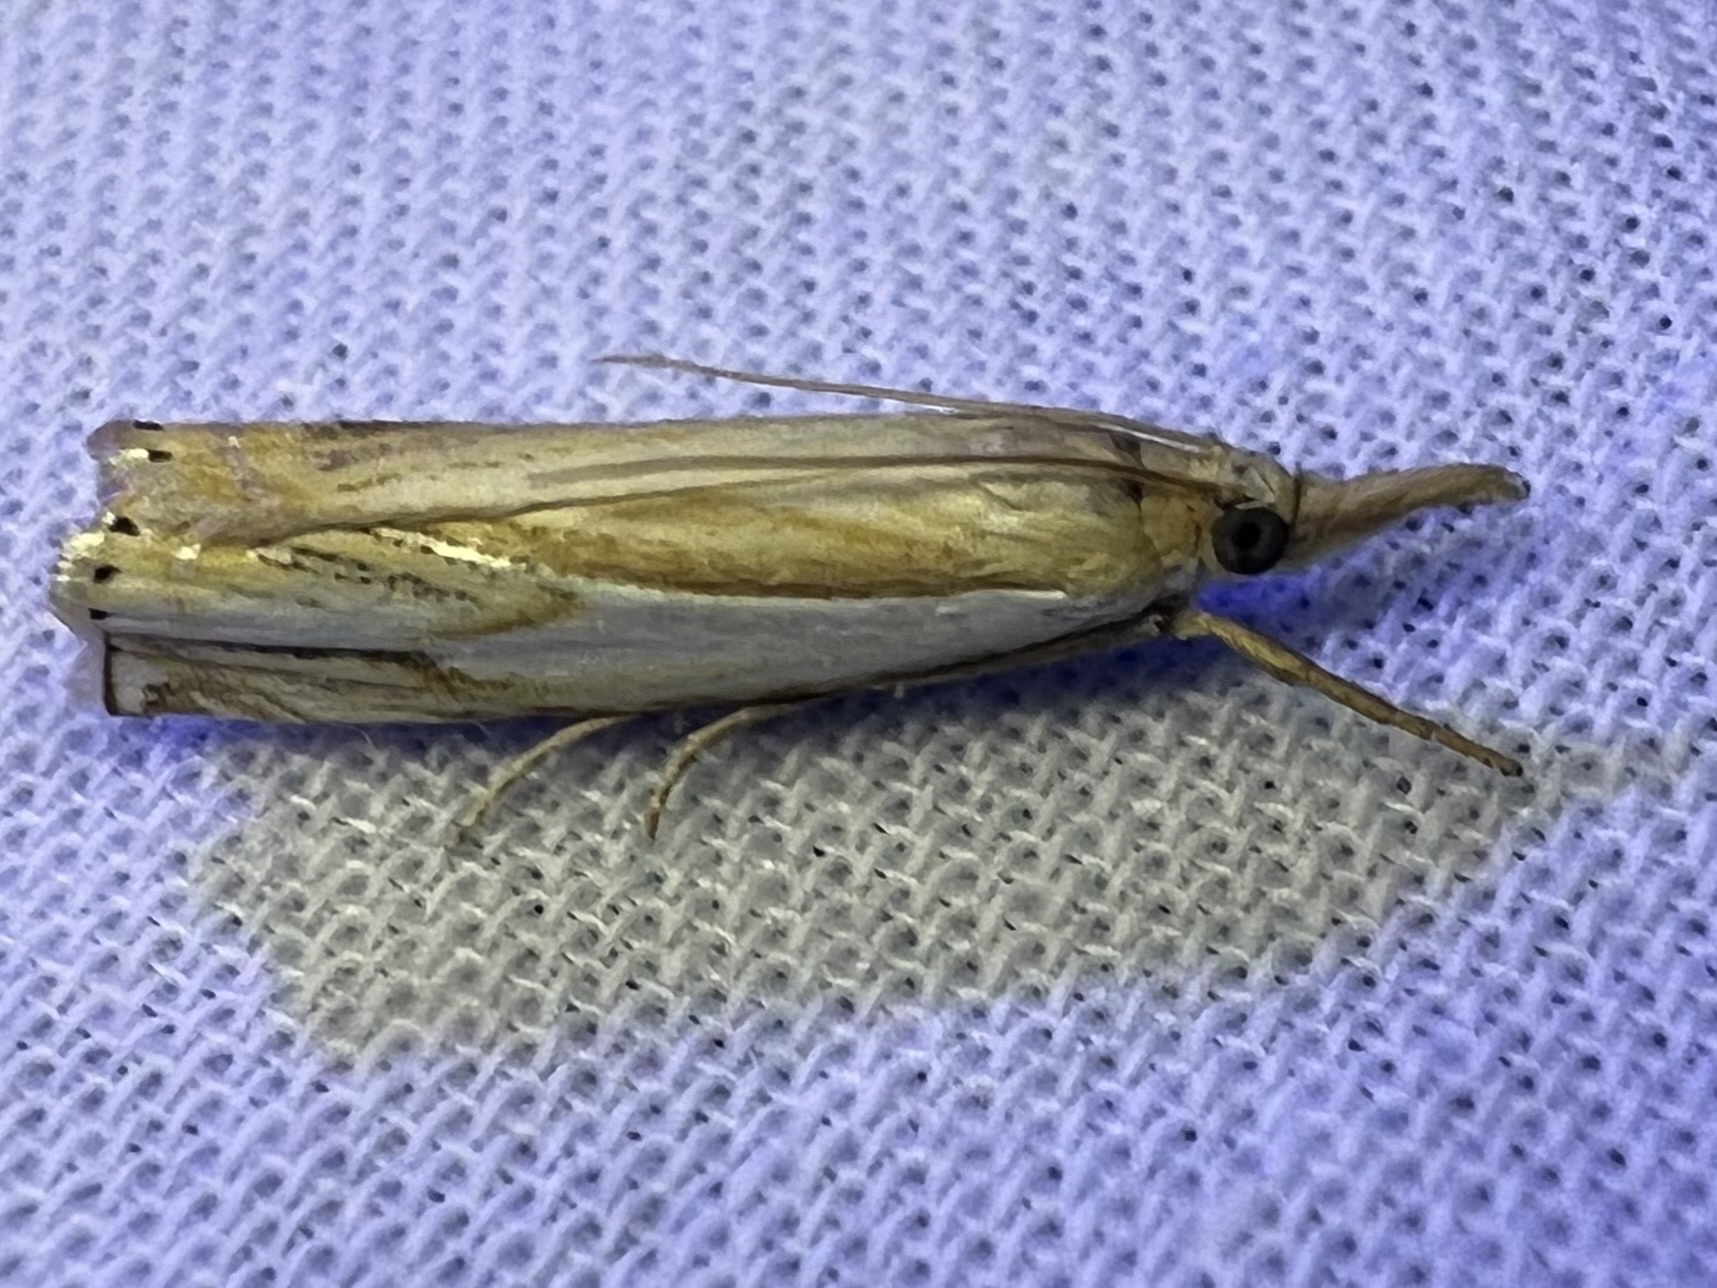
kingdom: Animalia
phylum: Arthropoda
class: Insecta
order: Lepidoptera
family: Crambidae
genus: Crambus
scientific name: Crambus agitatellus
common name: Double-banded grass-veneer
